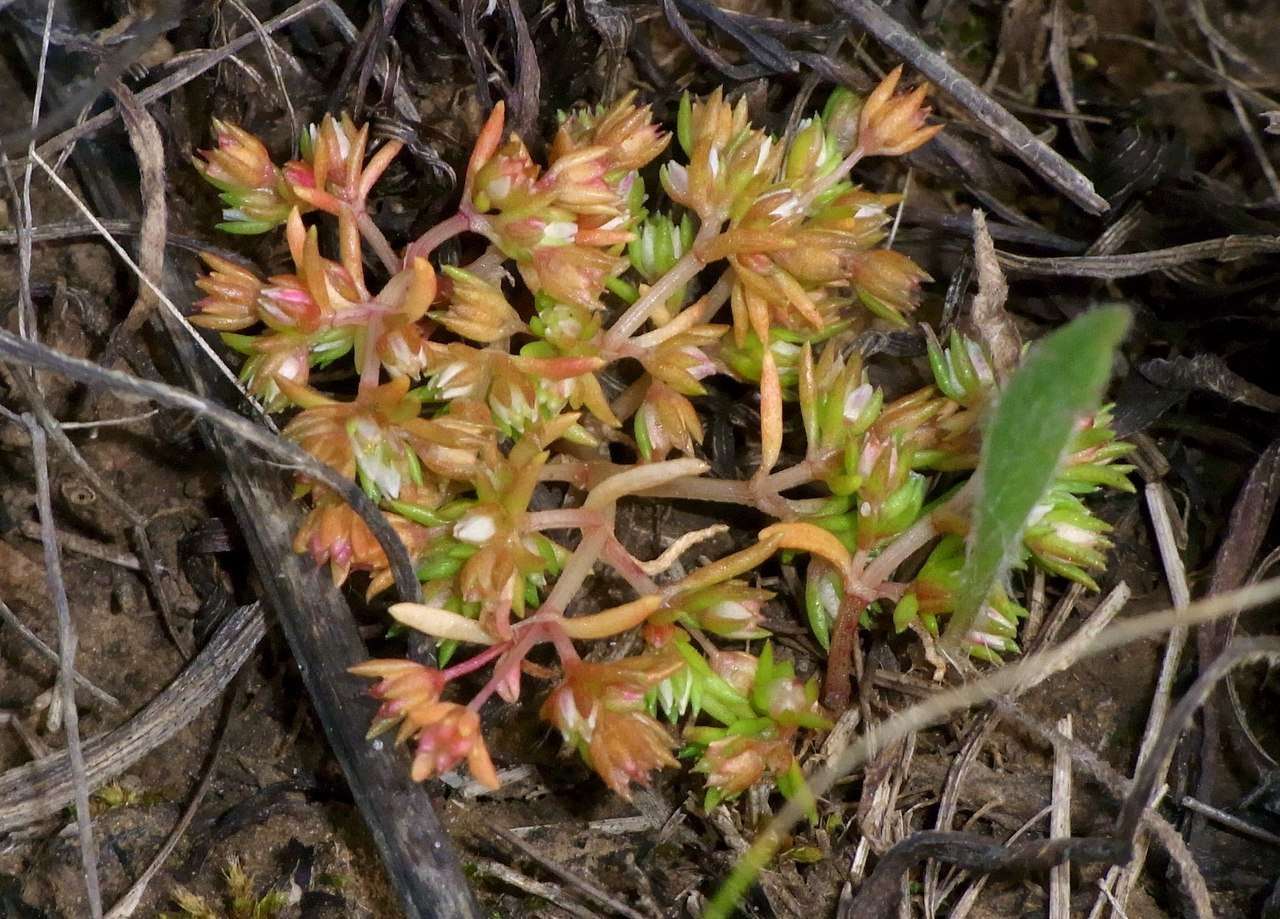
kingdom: Plantae
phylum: Tracheophyta
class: Magnoliopsida
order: Saxifragales
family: Crassulaceae
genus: Crassula
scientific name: Crassula decumbens
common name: Scilly pigmyweed
